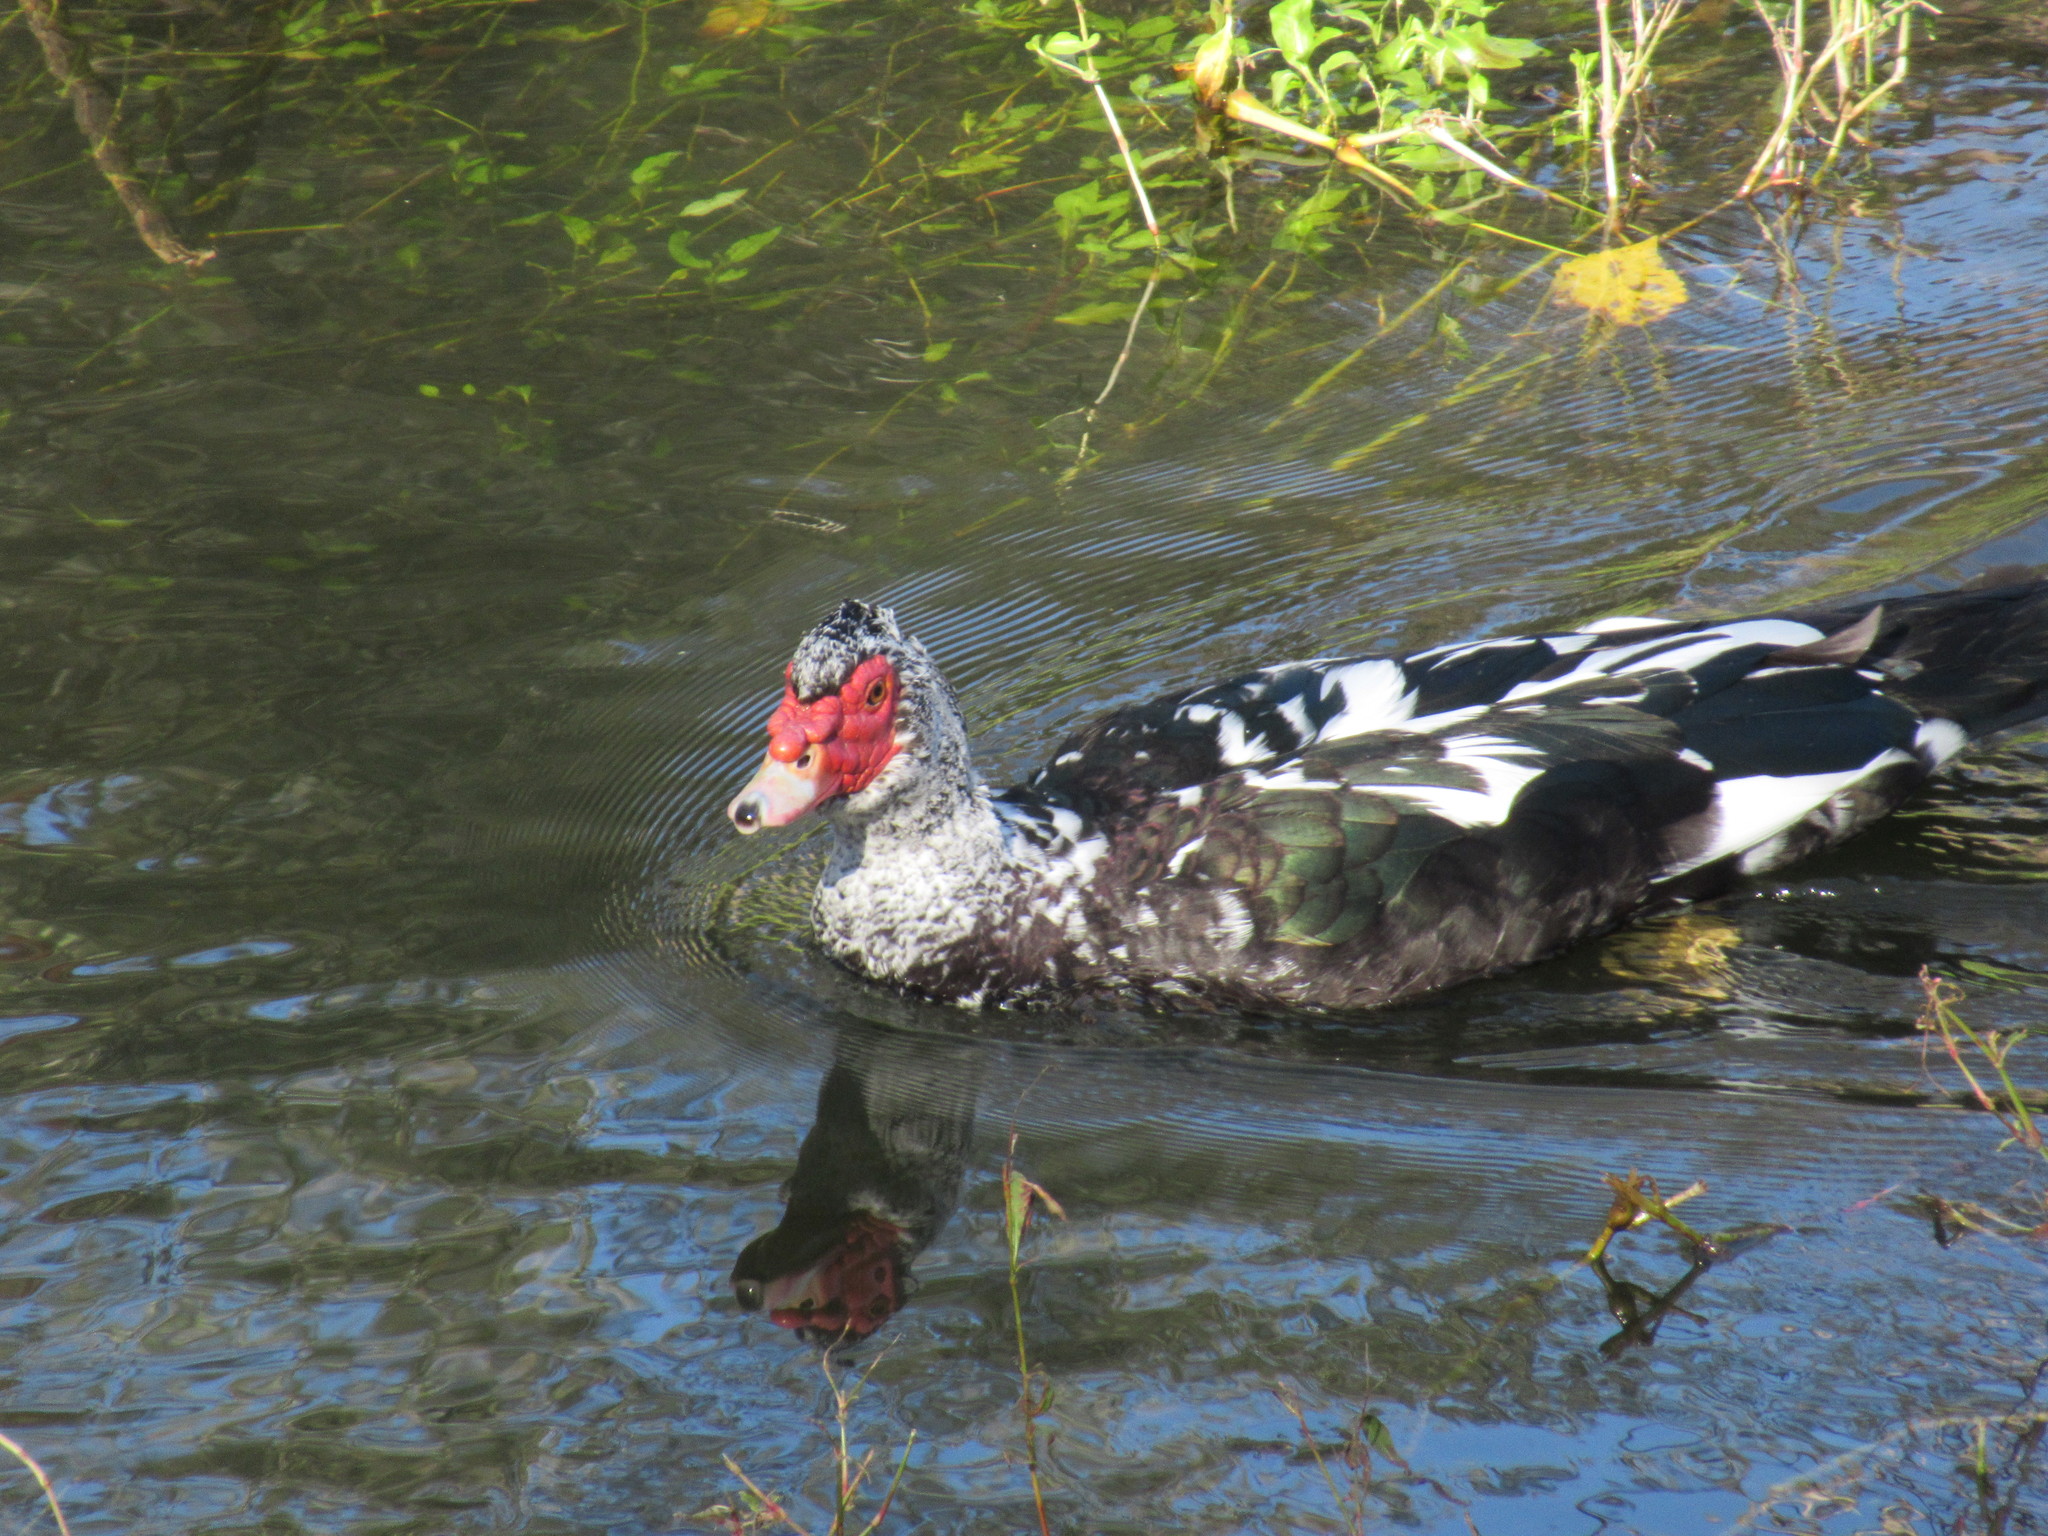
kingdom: Animalia
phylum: Chordata
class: Aves
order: Anseriformes
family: Anatidae
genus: Cairina
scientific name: Cairina moschata
